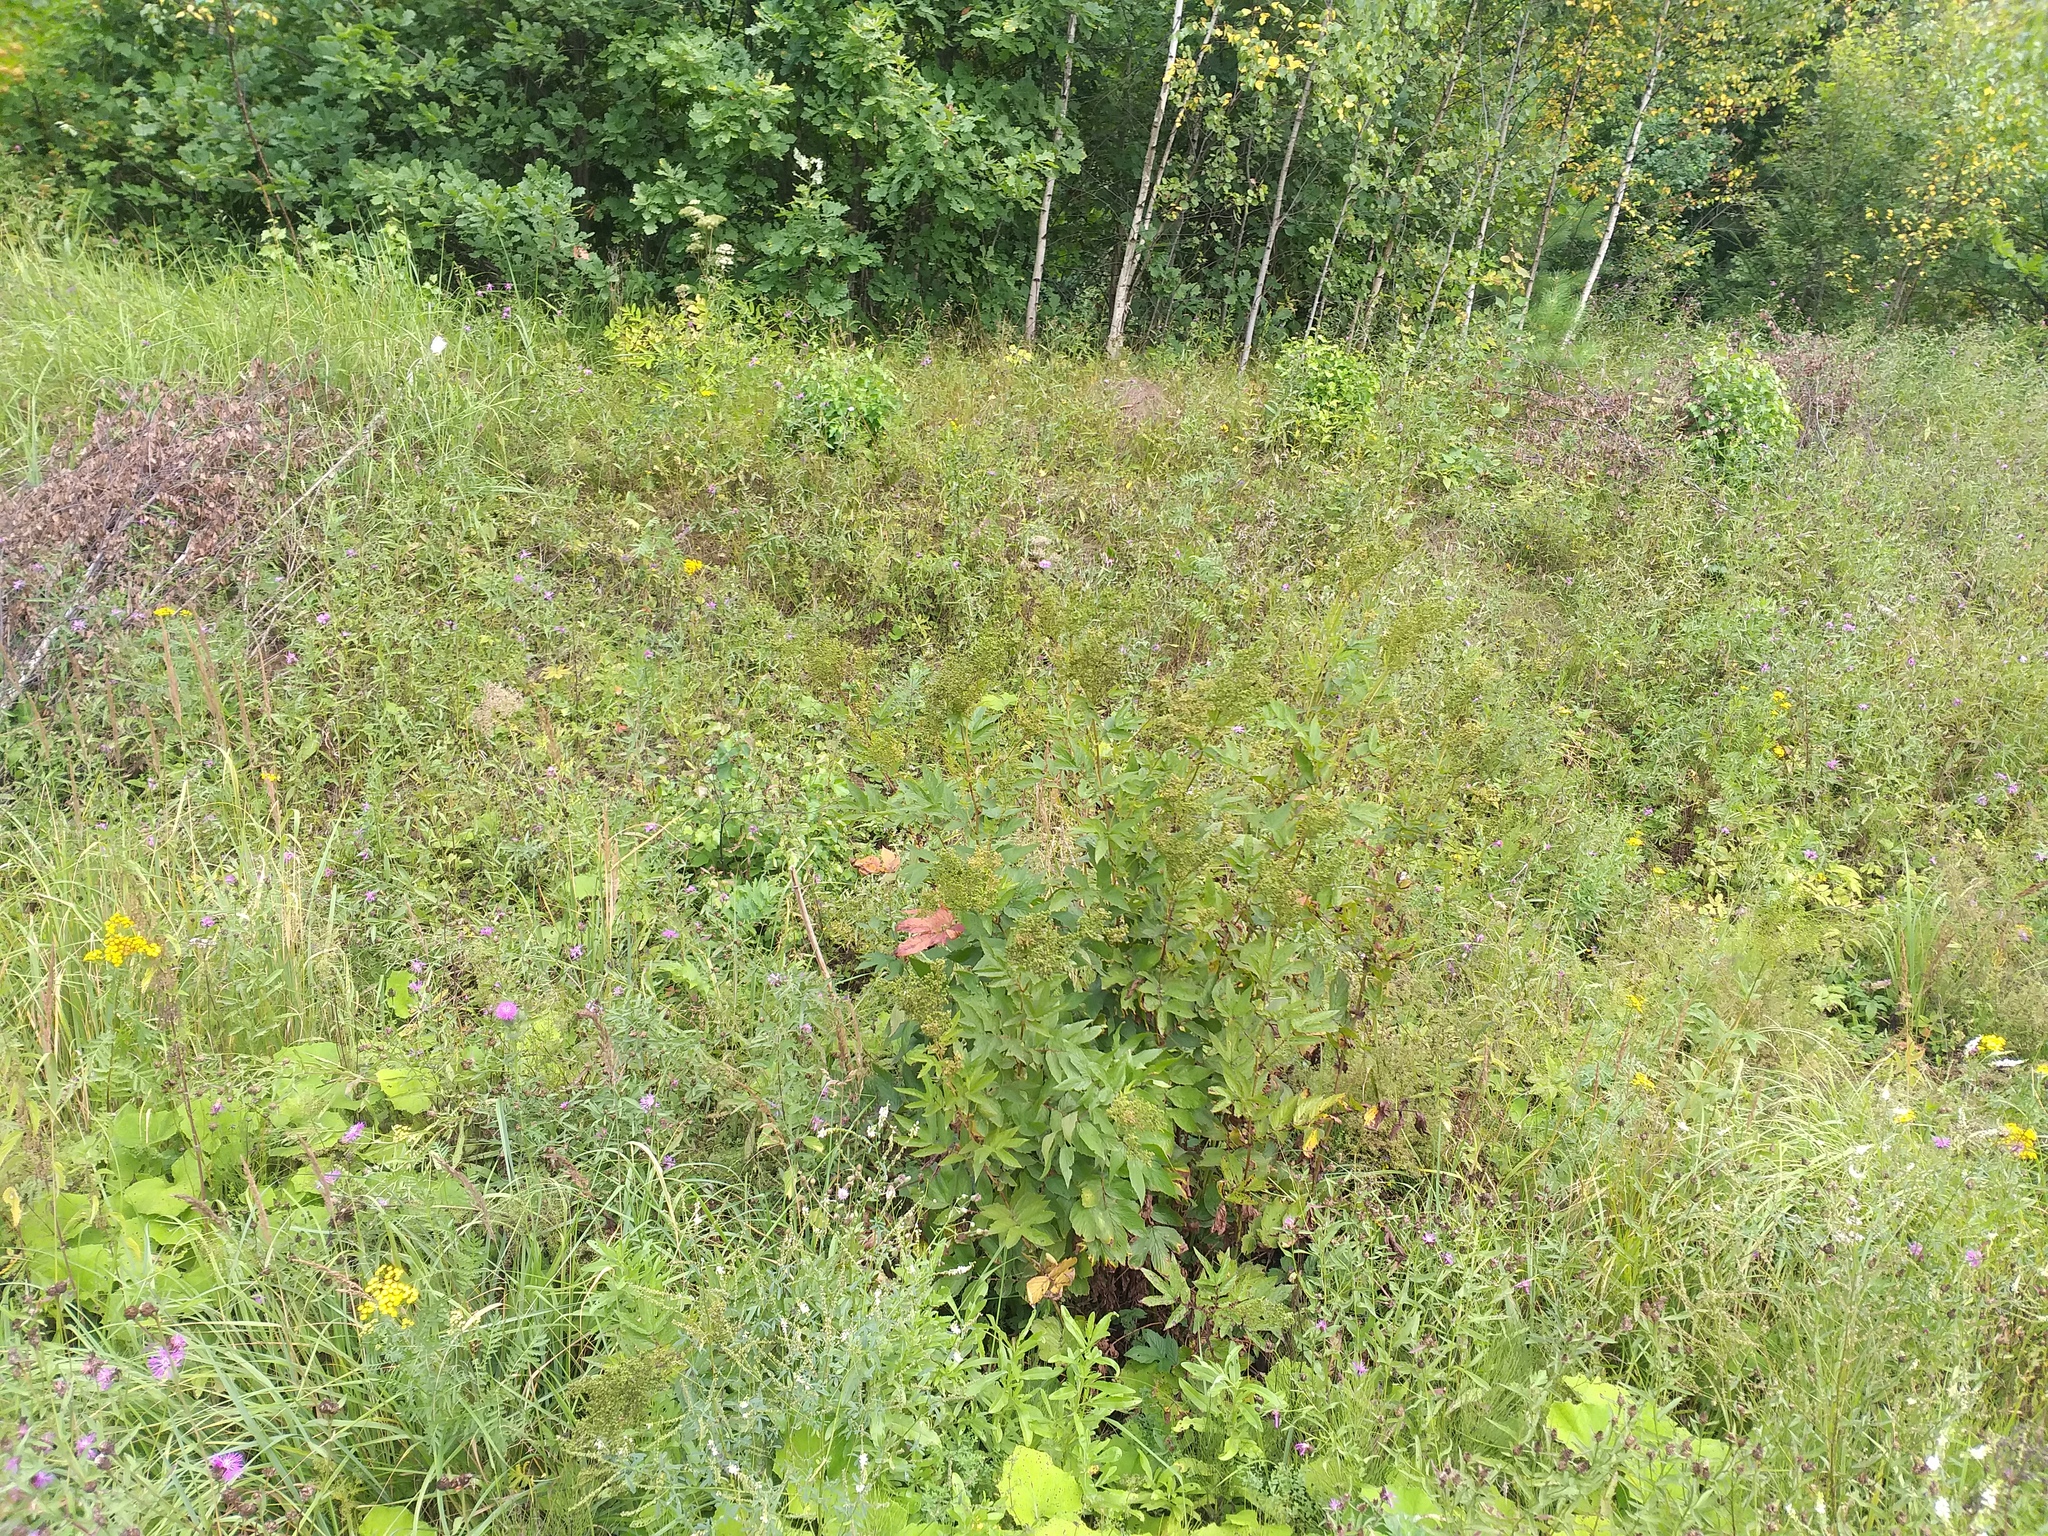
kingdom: Plantae
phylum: Tracheophyta
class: Magnoliopsida
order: Rosales
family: Rosaceae
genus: Filipendula
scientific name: Filipendula ulmaria
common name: Meadowsweet
